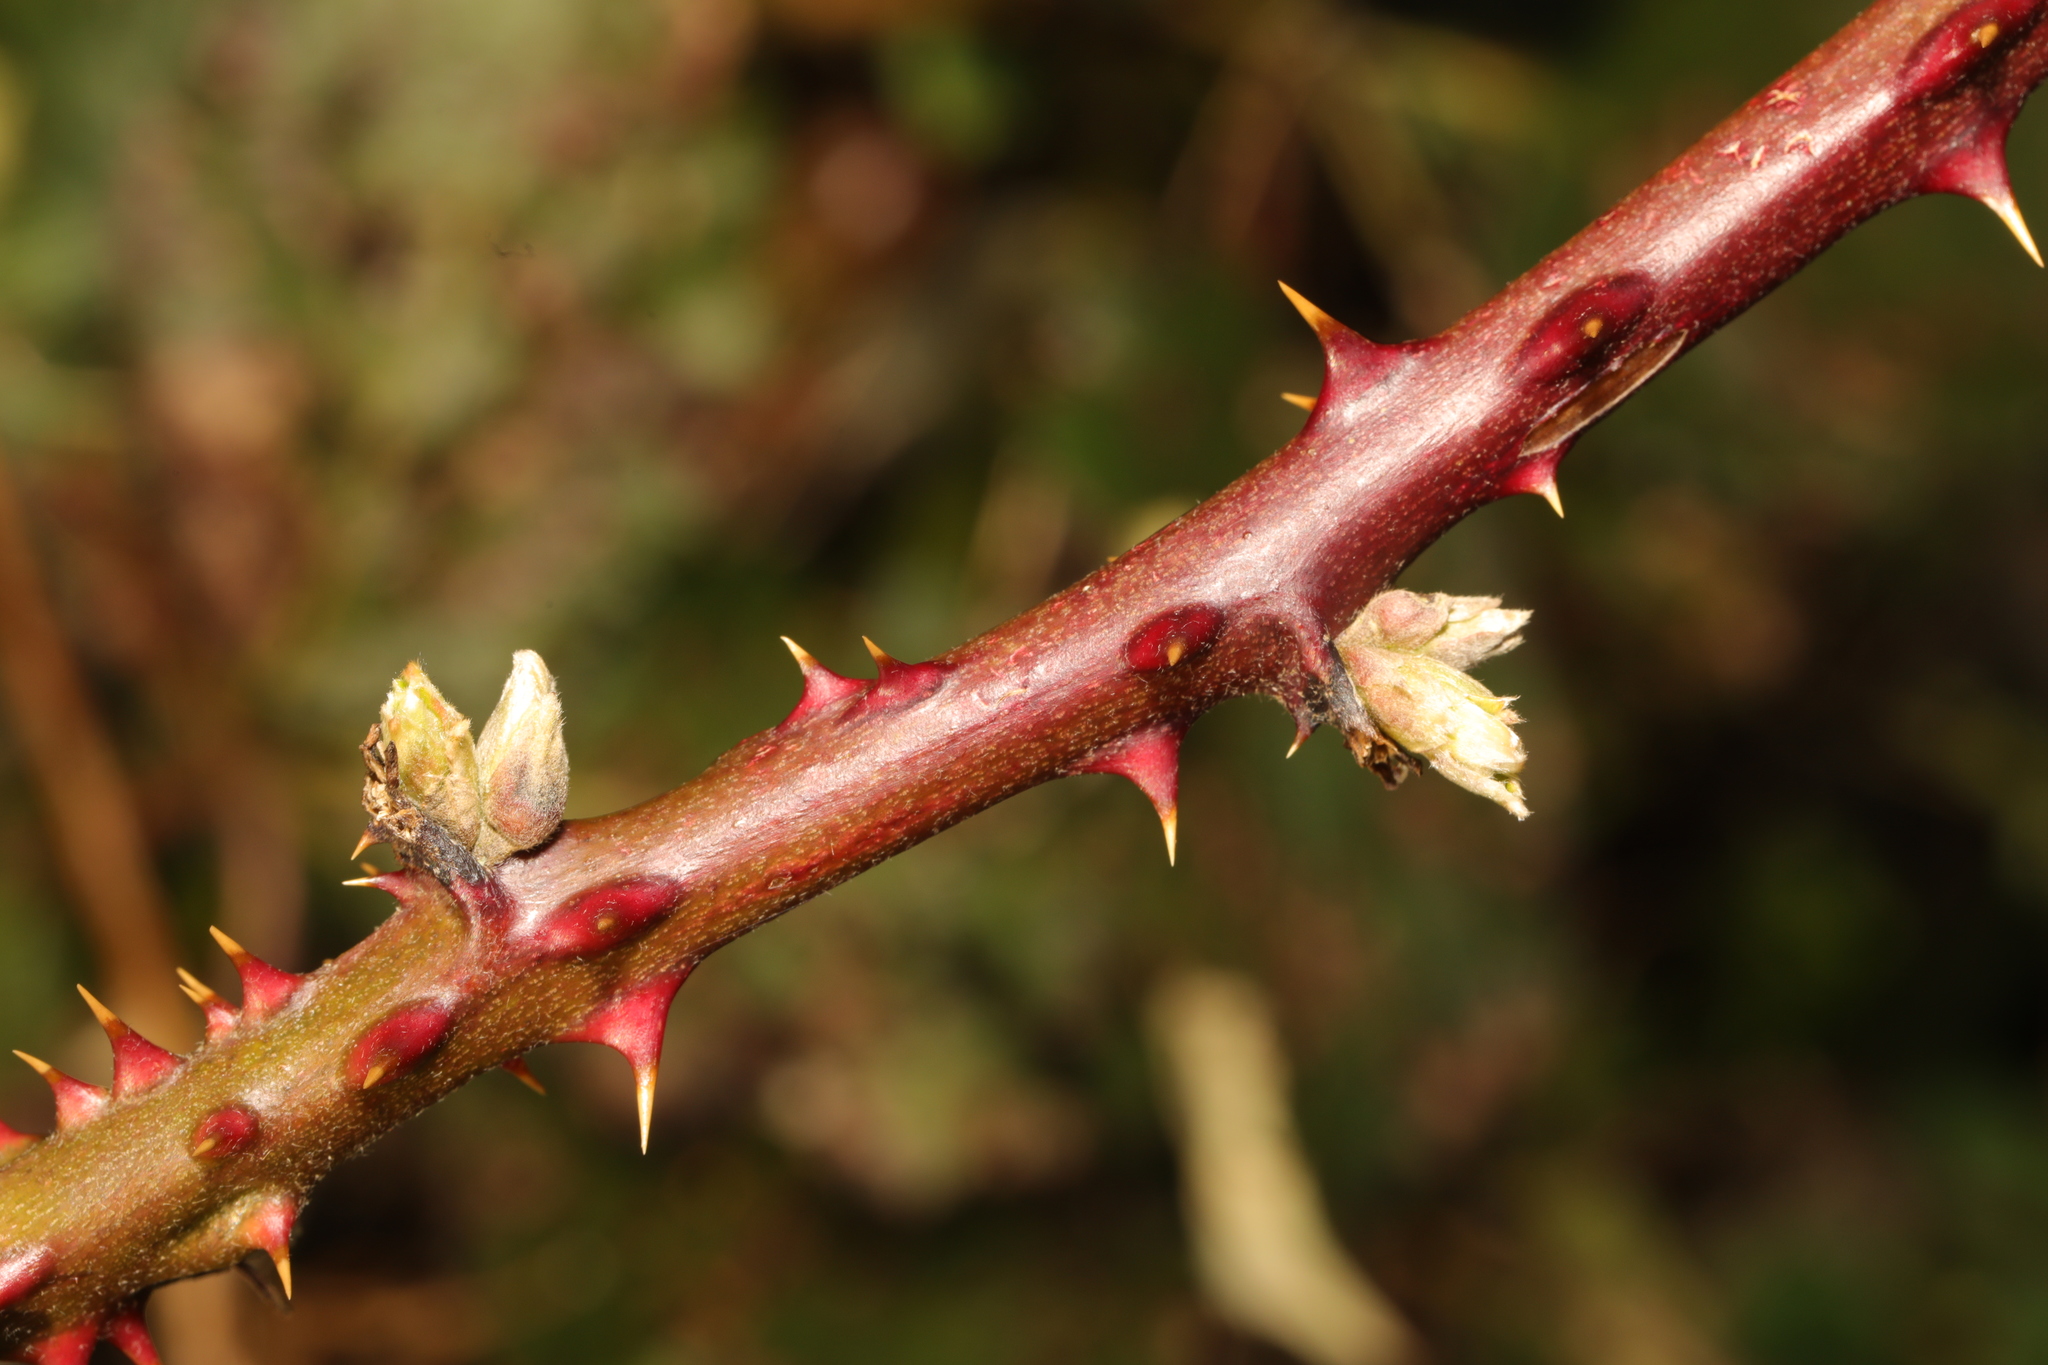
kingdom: Plantae
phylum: Tracheophyta
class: Magnoliopsida
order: Rosales
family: Rosaceae
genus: Rubus
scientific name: Rubus armeniacus
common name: Himalayan blackberry
